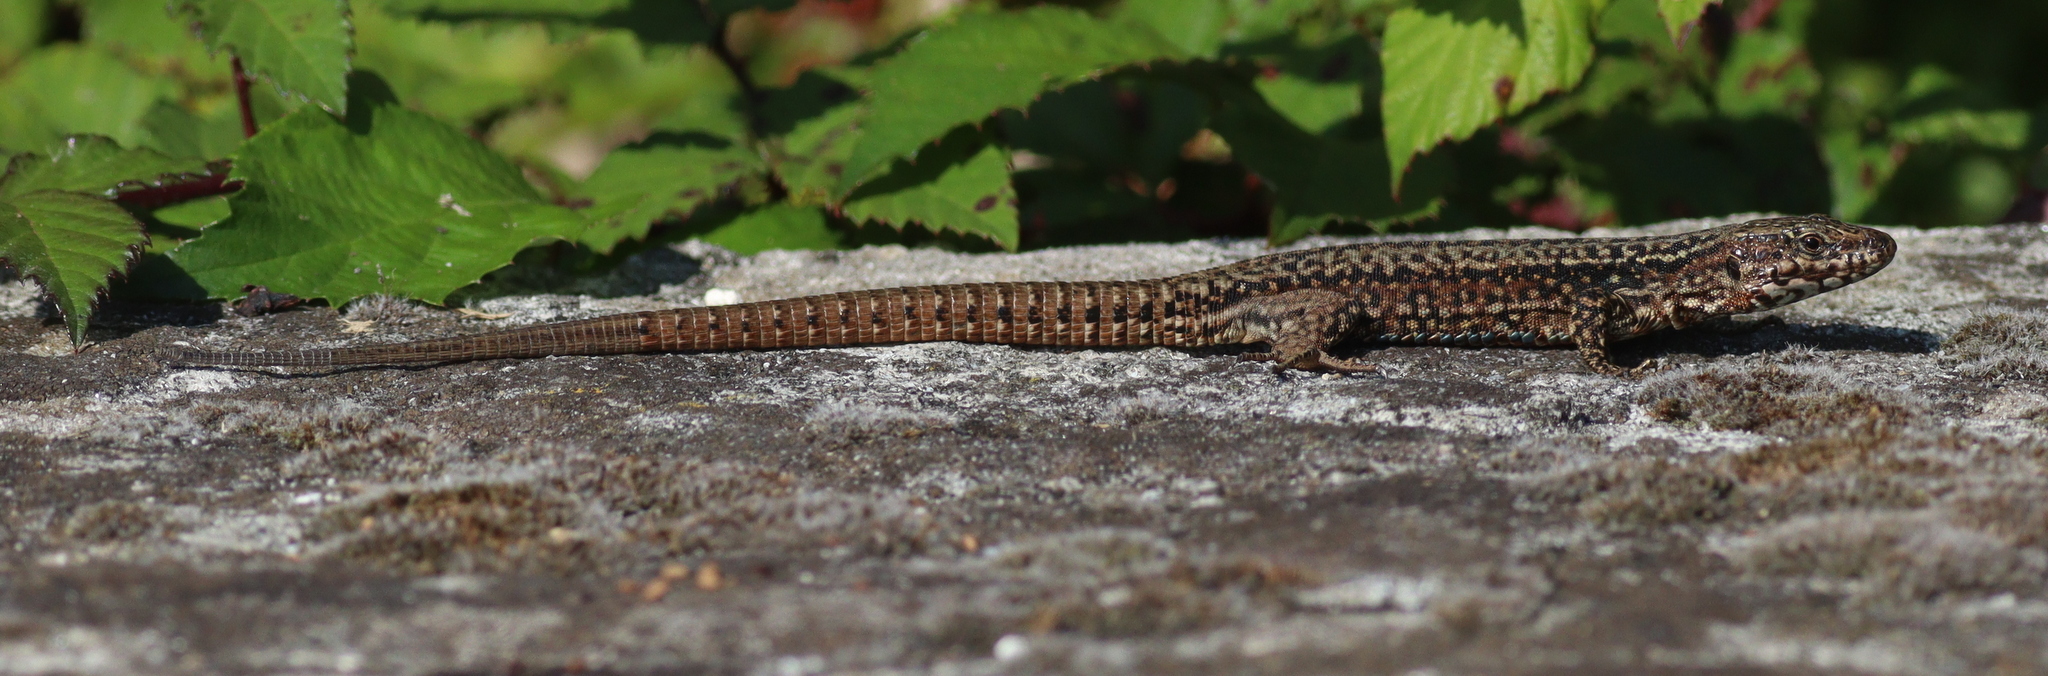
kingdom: Animalia
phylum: Chordata
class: Squamata
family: Lacertidae
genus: Podarcis
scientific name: Podarcis muralis
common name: Common wall lizard
